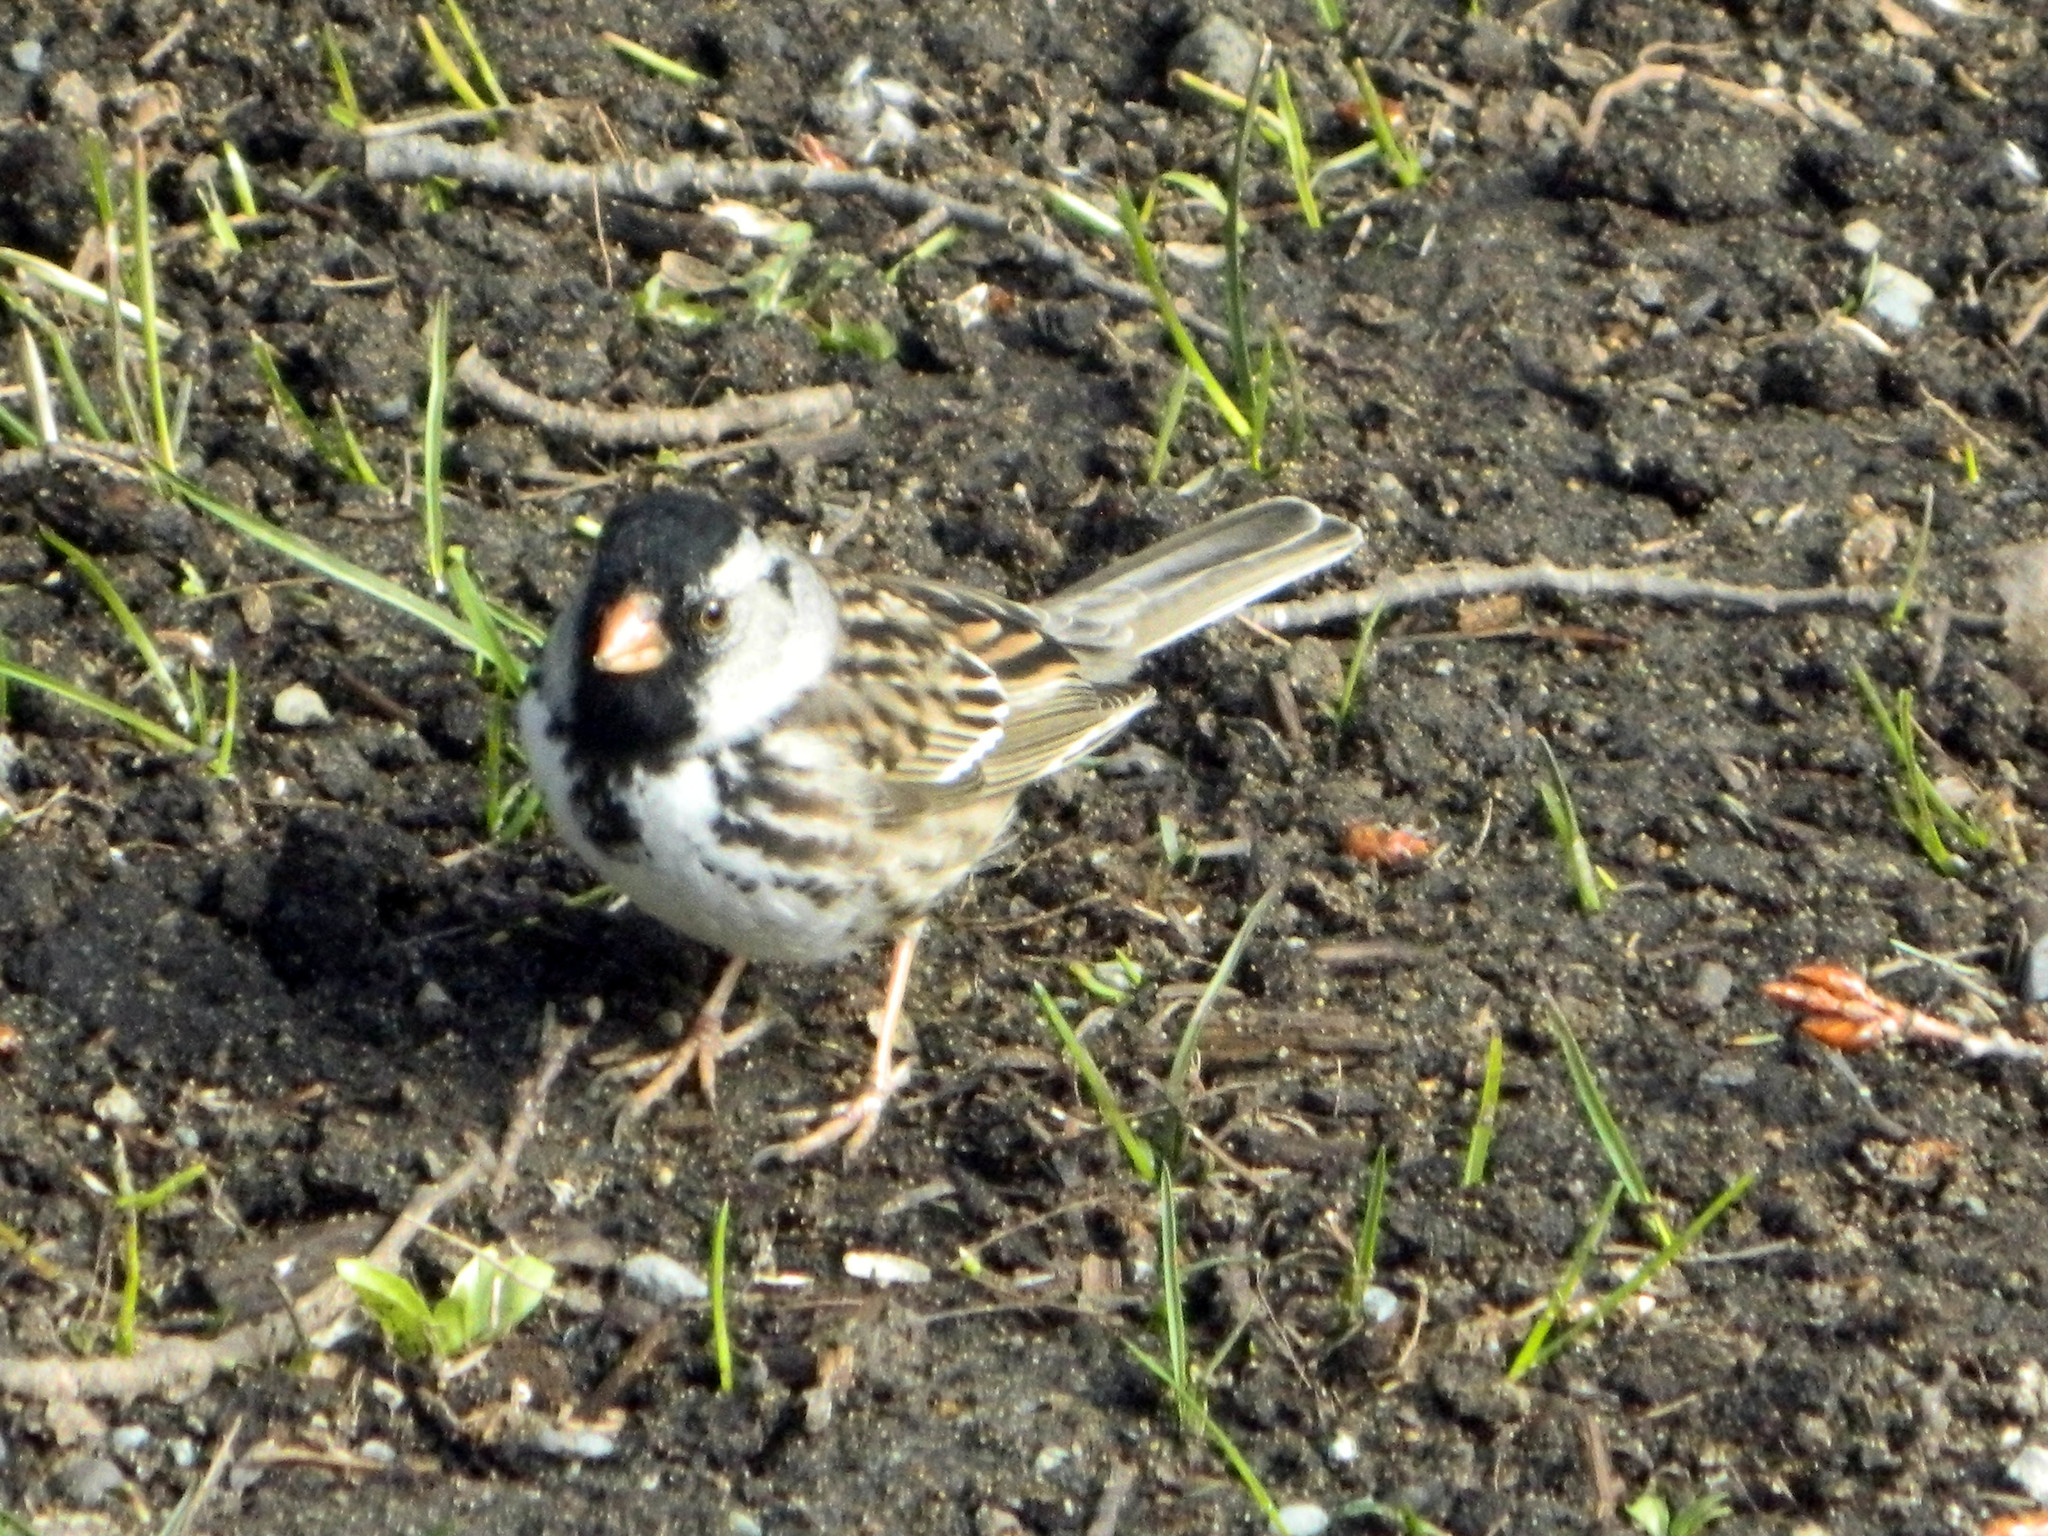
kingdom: Animalia
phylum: Chordata
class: Aves
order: Passeriformes
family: Passerellidae
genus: Zonotrichia
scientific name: Zonotrichia querula
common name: Harris's sparrow
